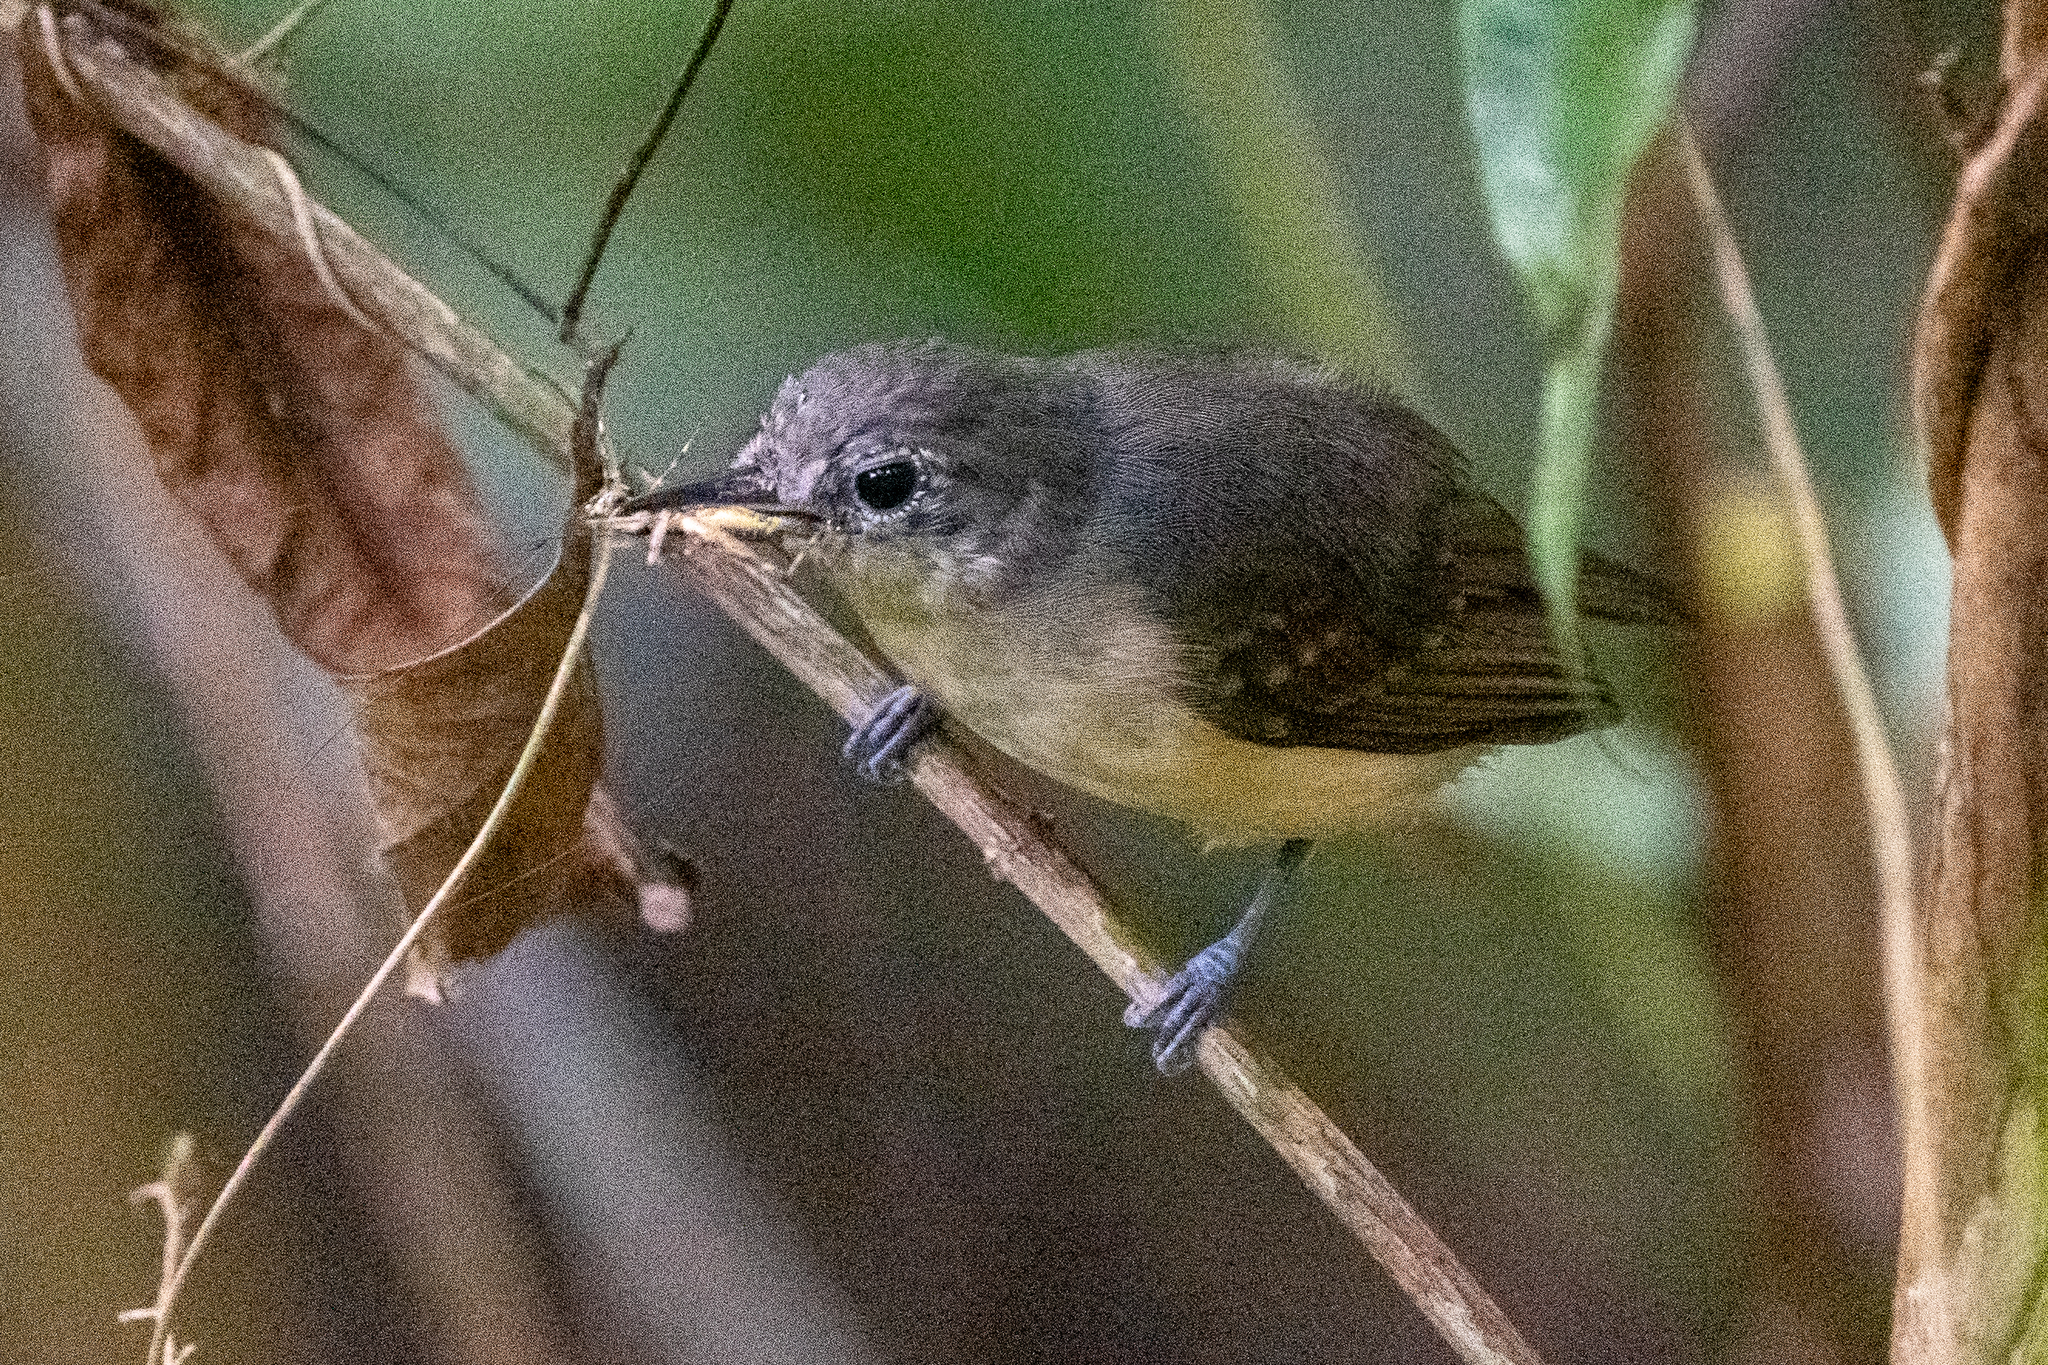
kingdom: Animalia
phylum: Chordata
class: Aves
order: Passeriformes
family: Thamnophilidae
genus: Myrmotherula
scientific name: Myrmotherula axillaris
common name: White-flanked antwren
